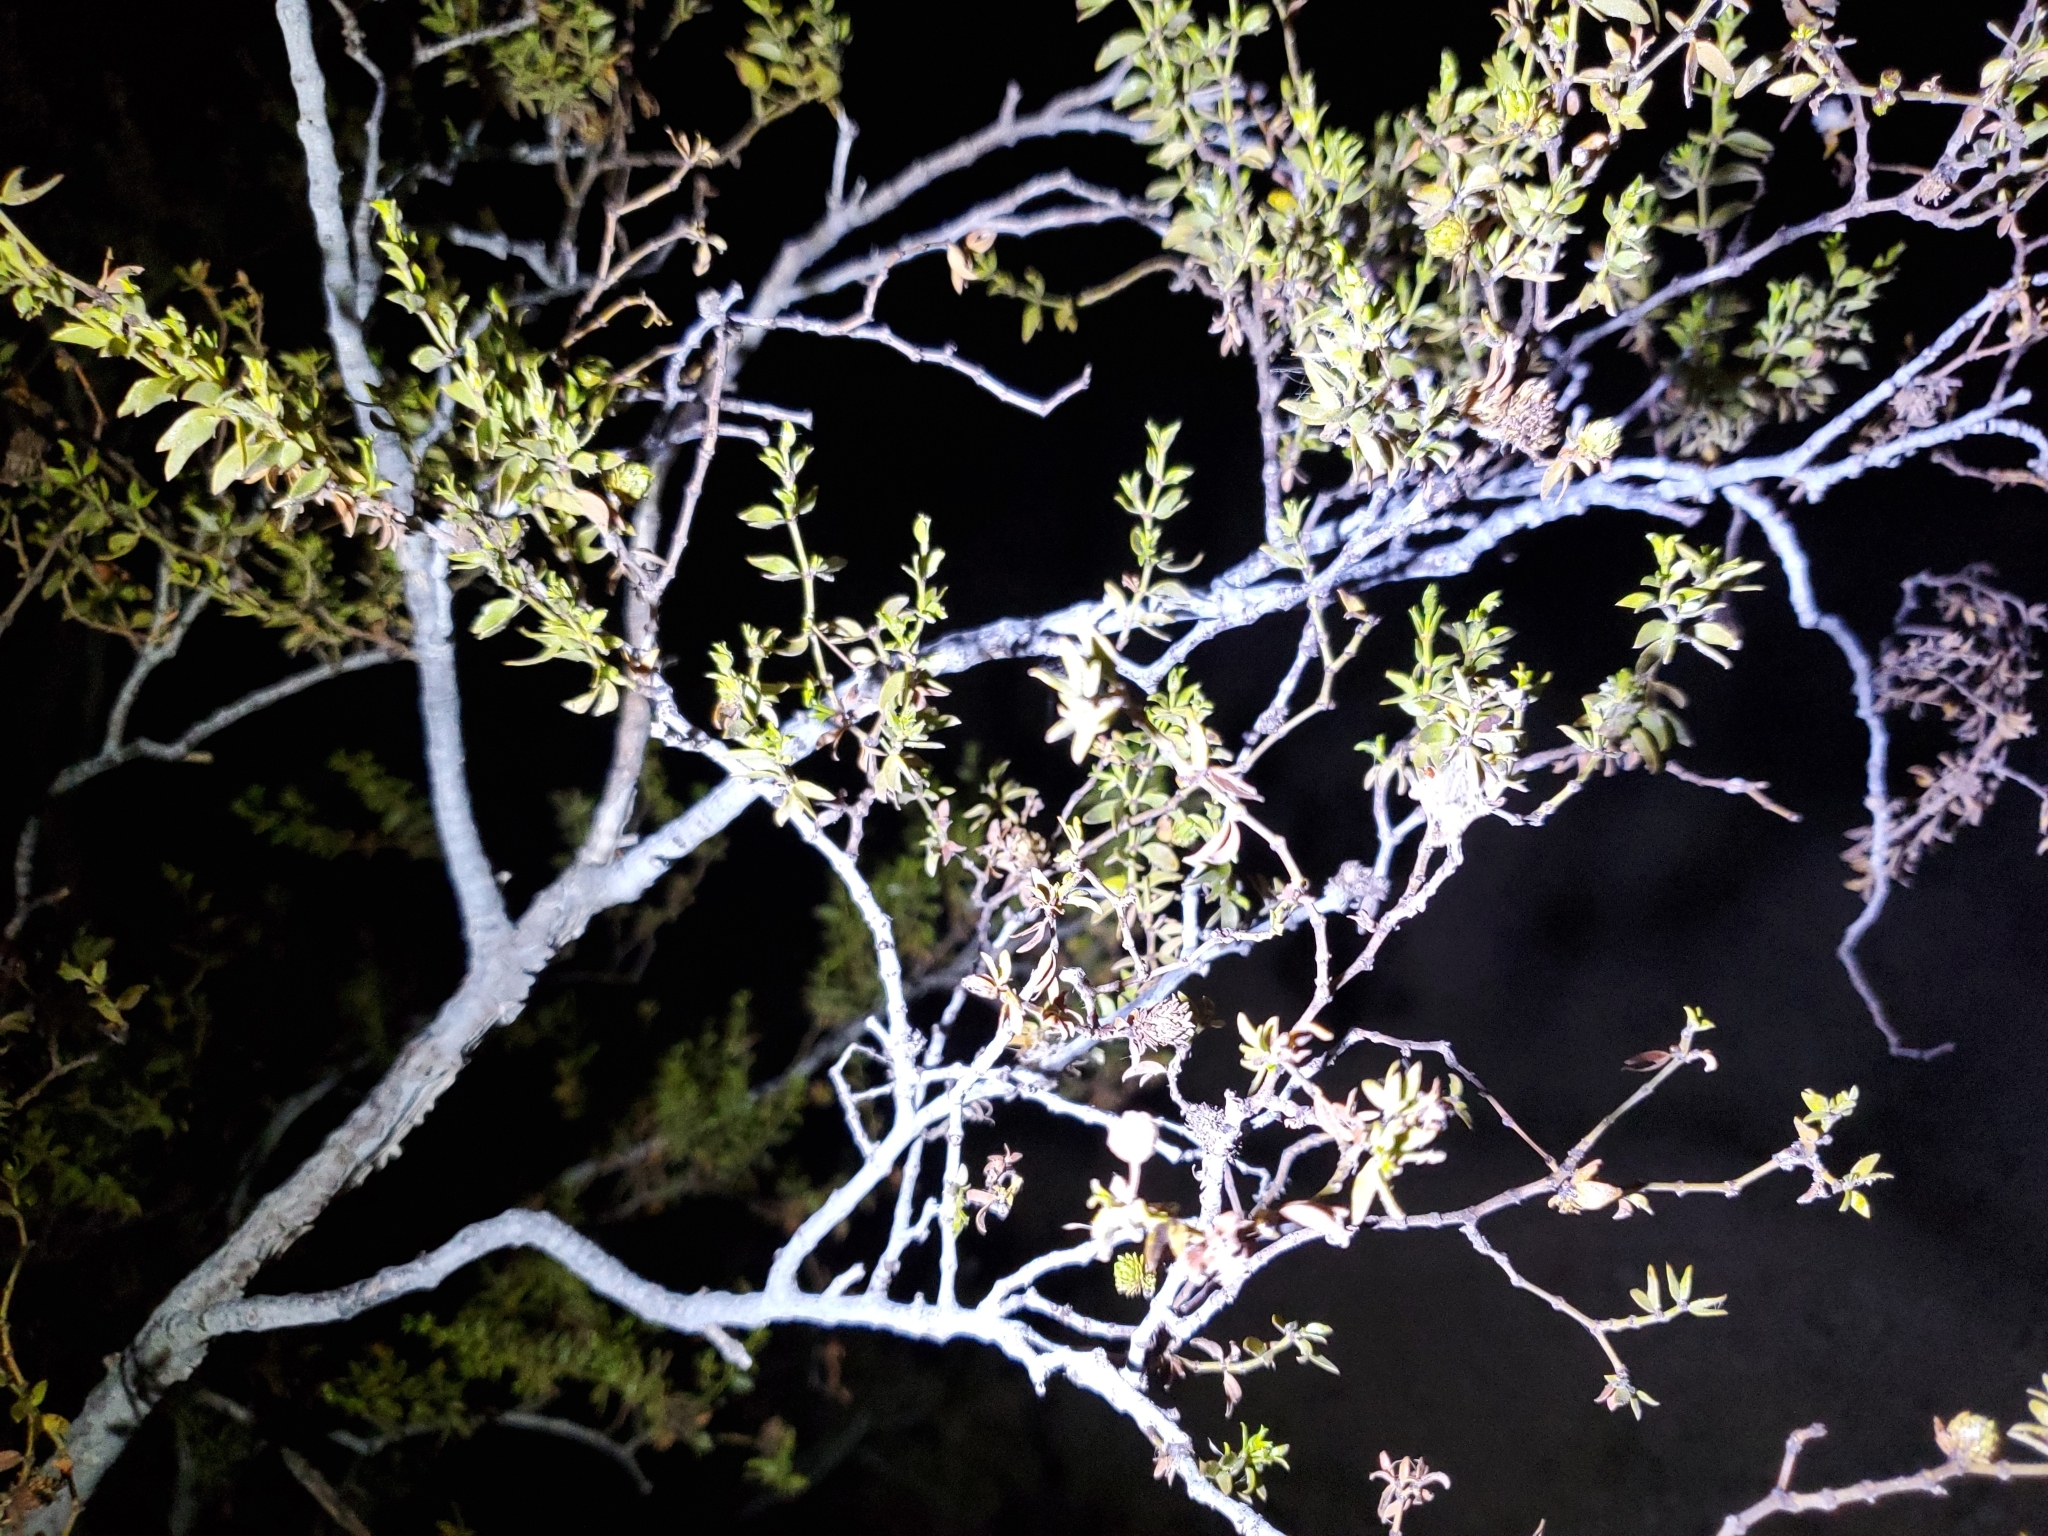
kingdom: Plantae
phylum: Tracheophyta
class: Magnoliopsida
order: Zygophyllales
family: Zygophyllaceae
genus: Larrea
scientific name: Larrea tridentata
